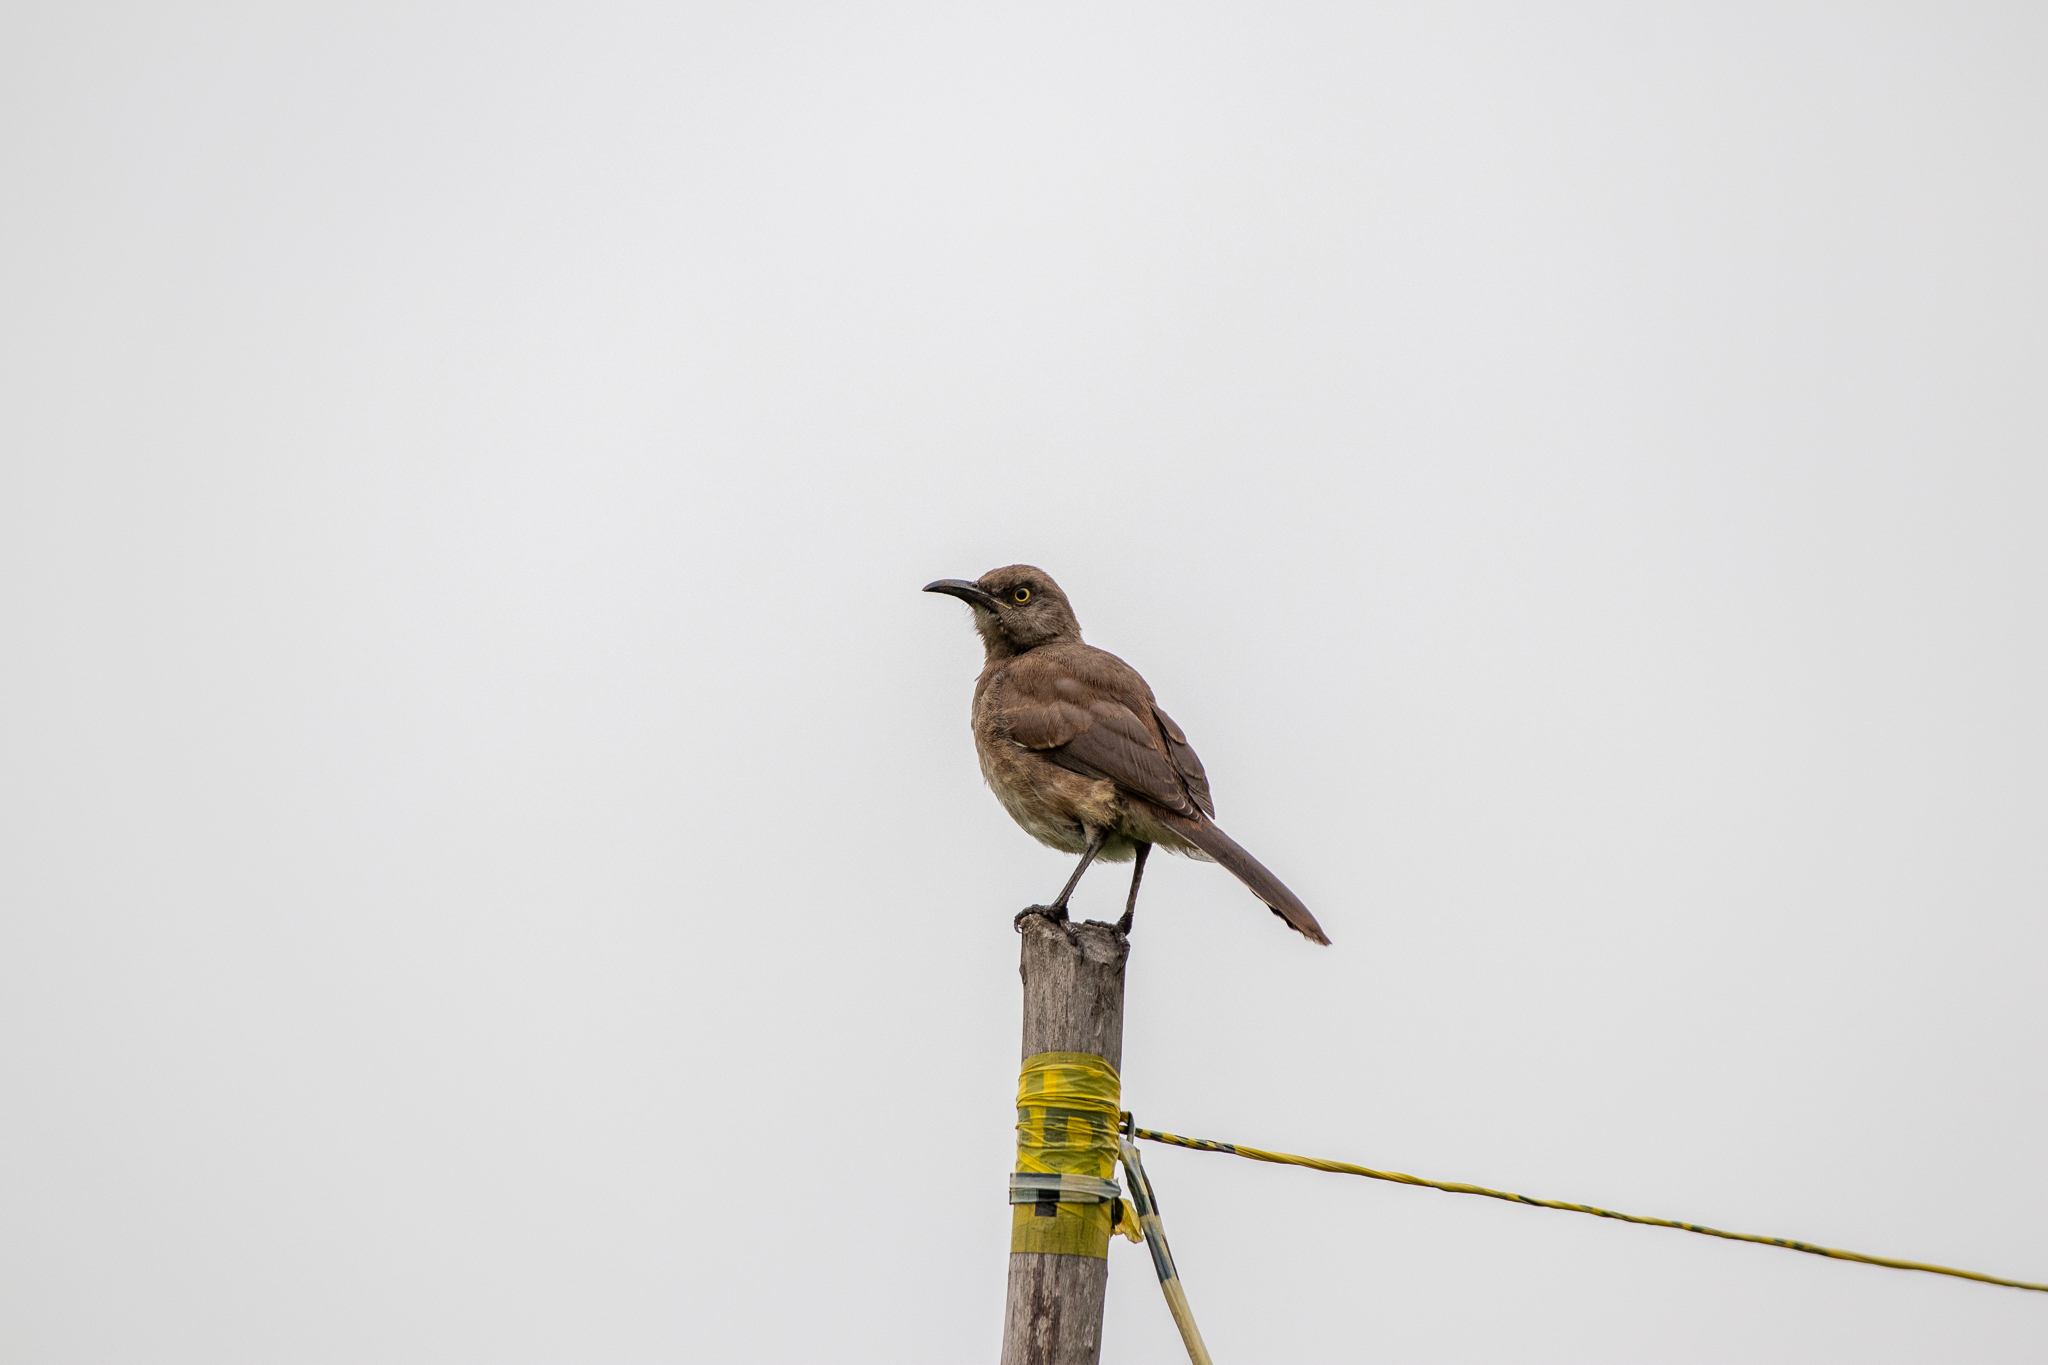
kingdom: Animalia
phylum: Chordata
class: Aves
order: Passeriformes
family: Mimidae
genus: Toxostoma
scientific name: Toxostoma curvirostre
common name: Curve-billed thrasher
